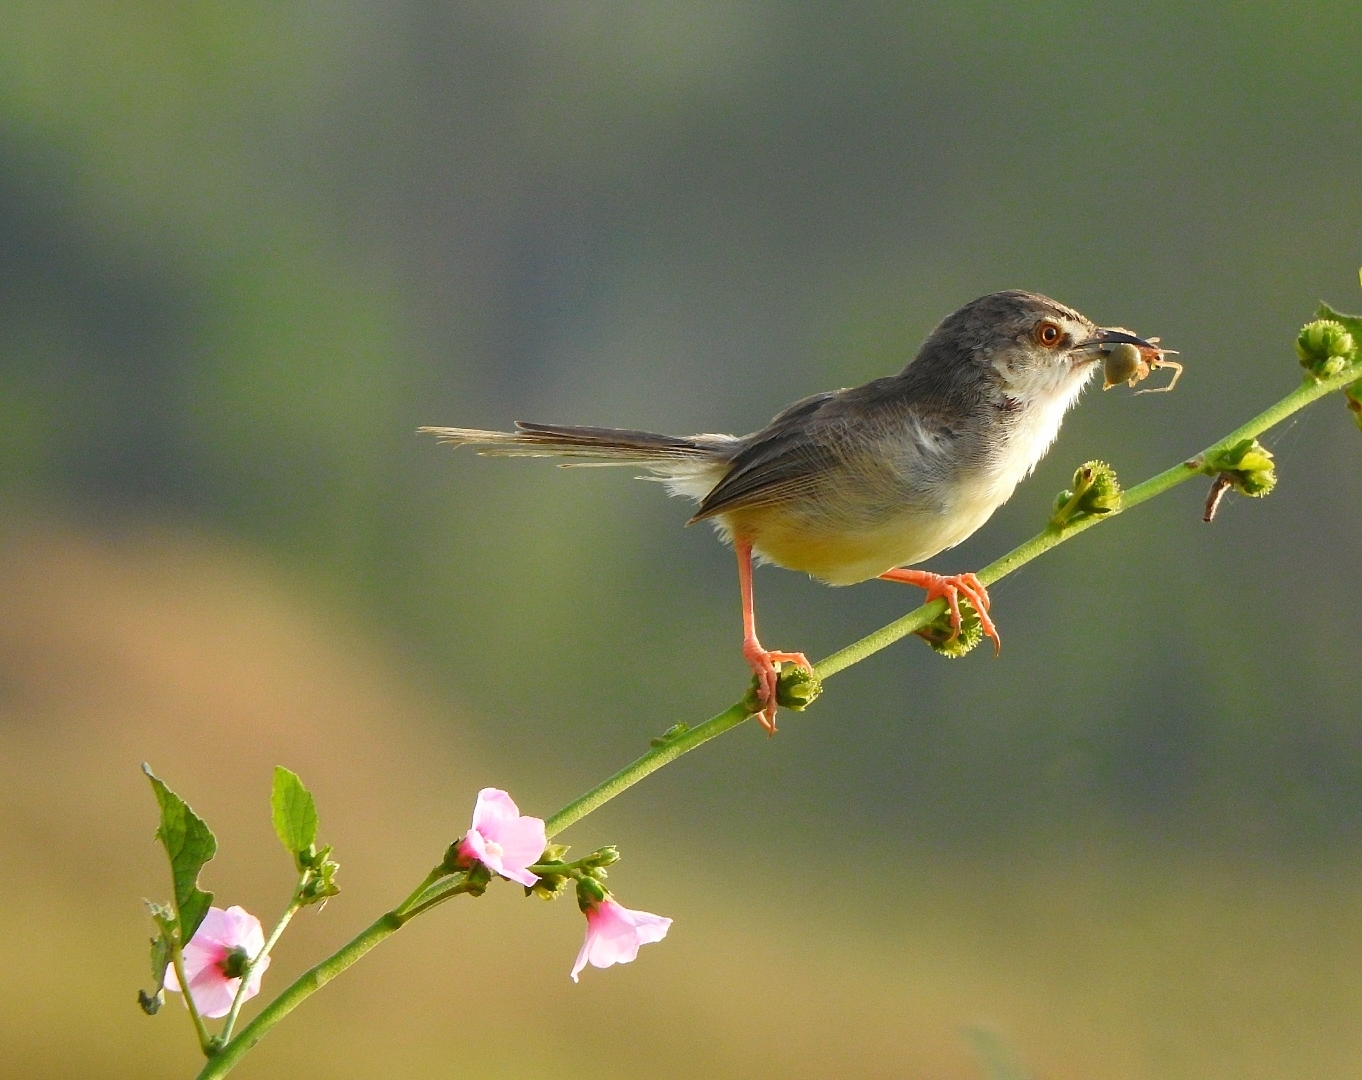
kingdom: Animalia
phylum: Chordata
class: Aves
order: Passeriformes
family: Cisticolidae
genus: Prinia
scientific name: Prinia inornata
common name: Plain prinia
